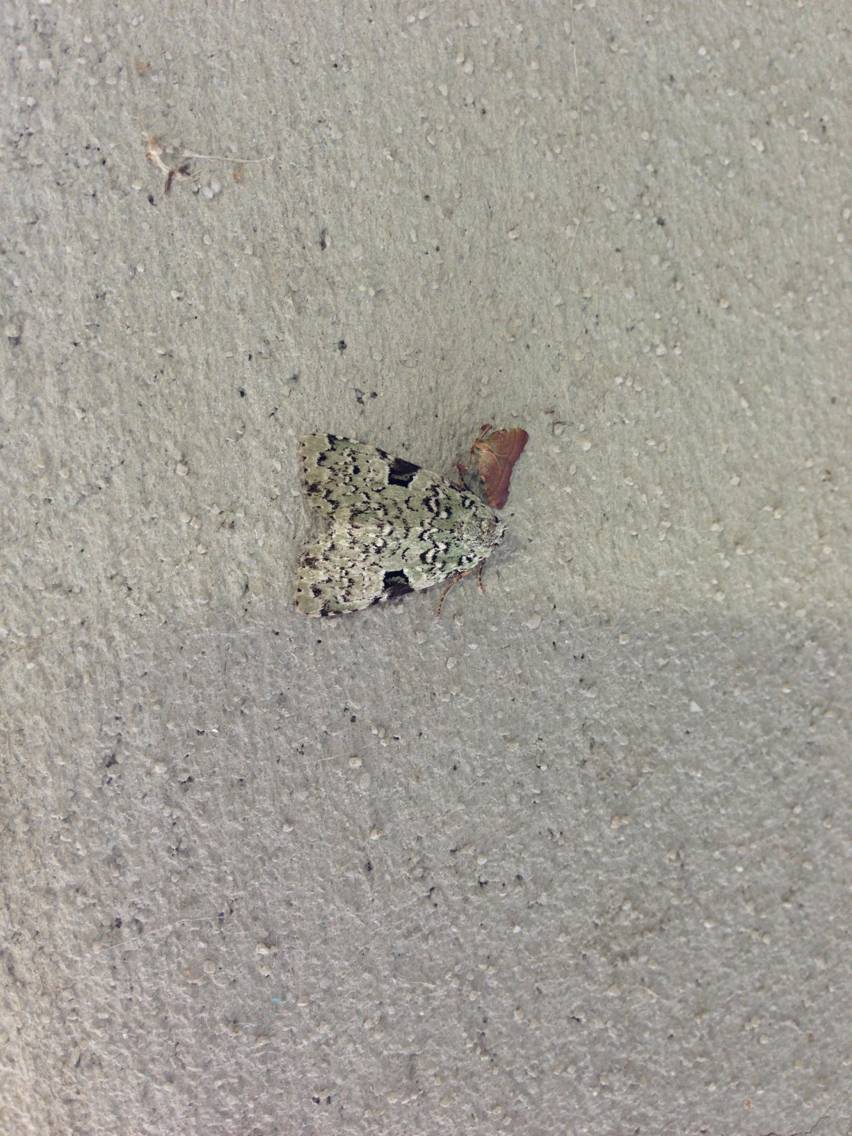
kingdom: Animalia
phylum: Arthropoda
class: Insecta
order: Lepidoptera
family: Noctuidae
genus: Leuconycta
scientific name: Leuconycta diphteroides
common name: Green leuconycta moth
